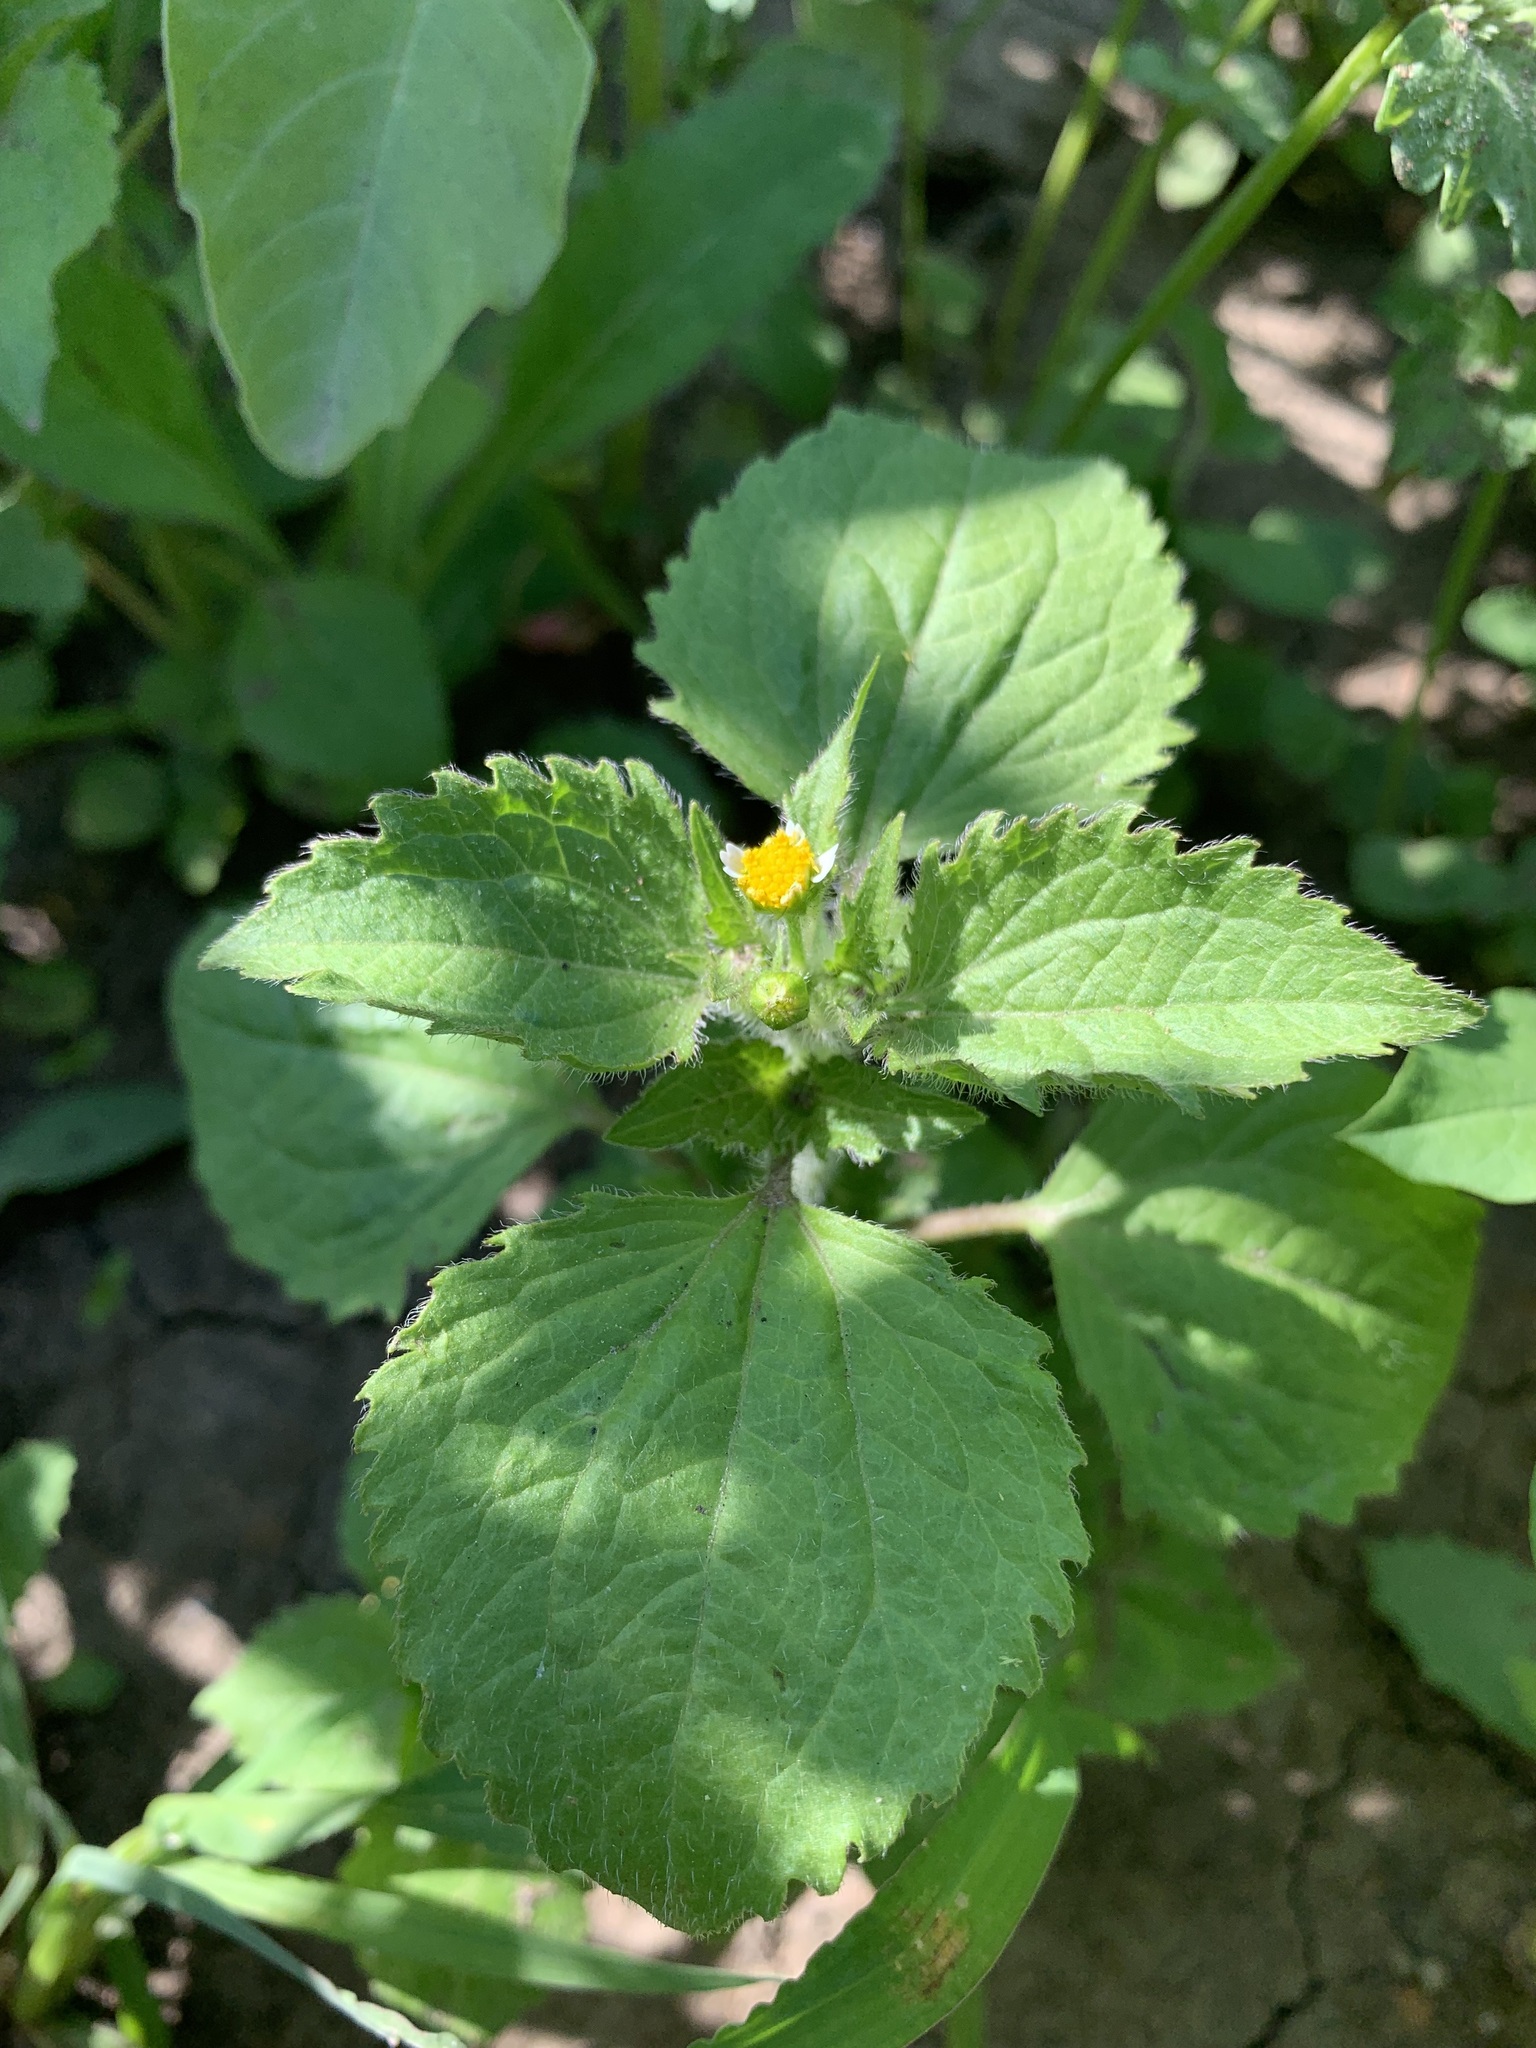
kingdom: Plantae
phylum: Tracheophyta
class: Magnoliopsida
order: Asterales
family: Asteraceae
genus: Galinsoga
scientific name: Galinsoga quadriradiata
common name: Shaggy soldier
